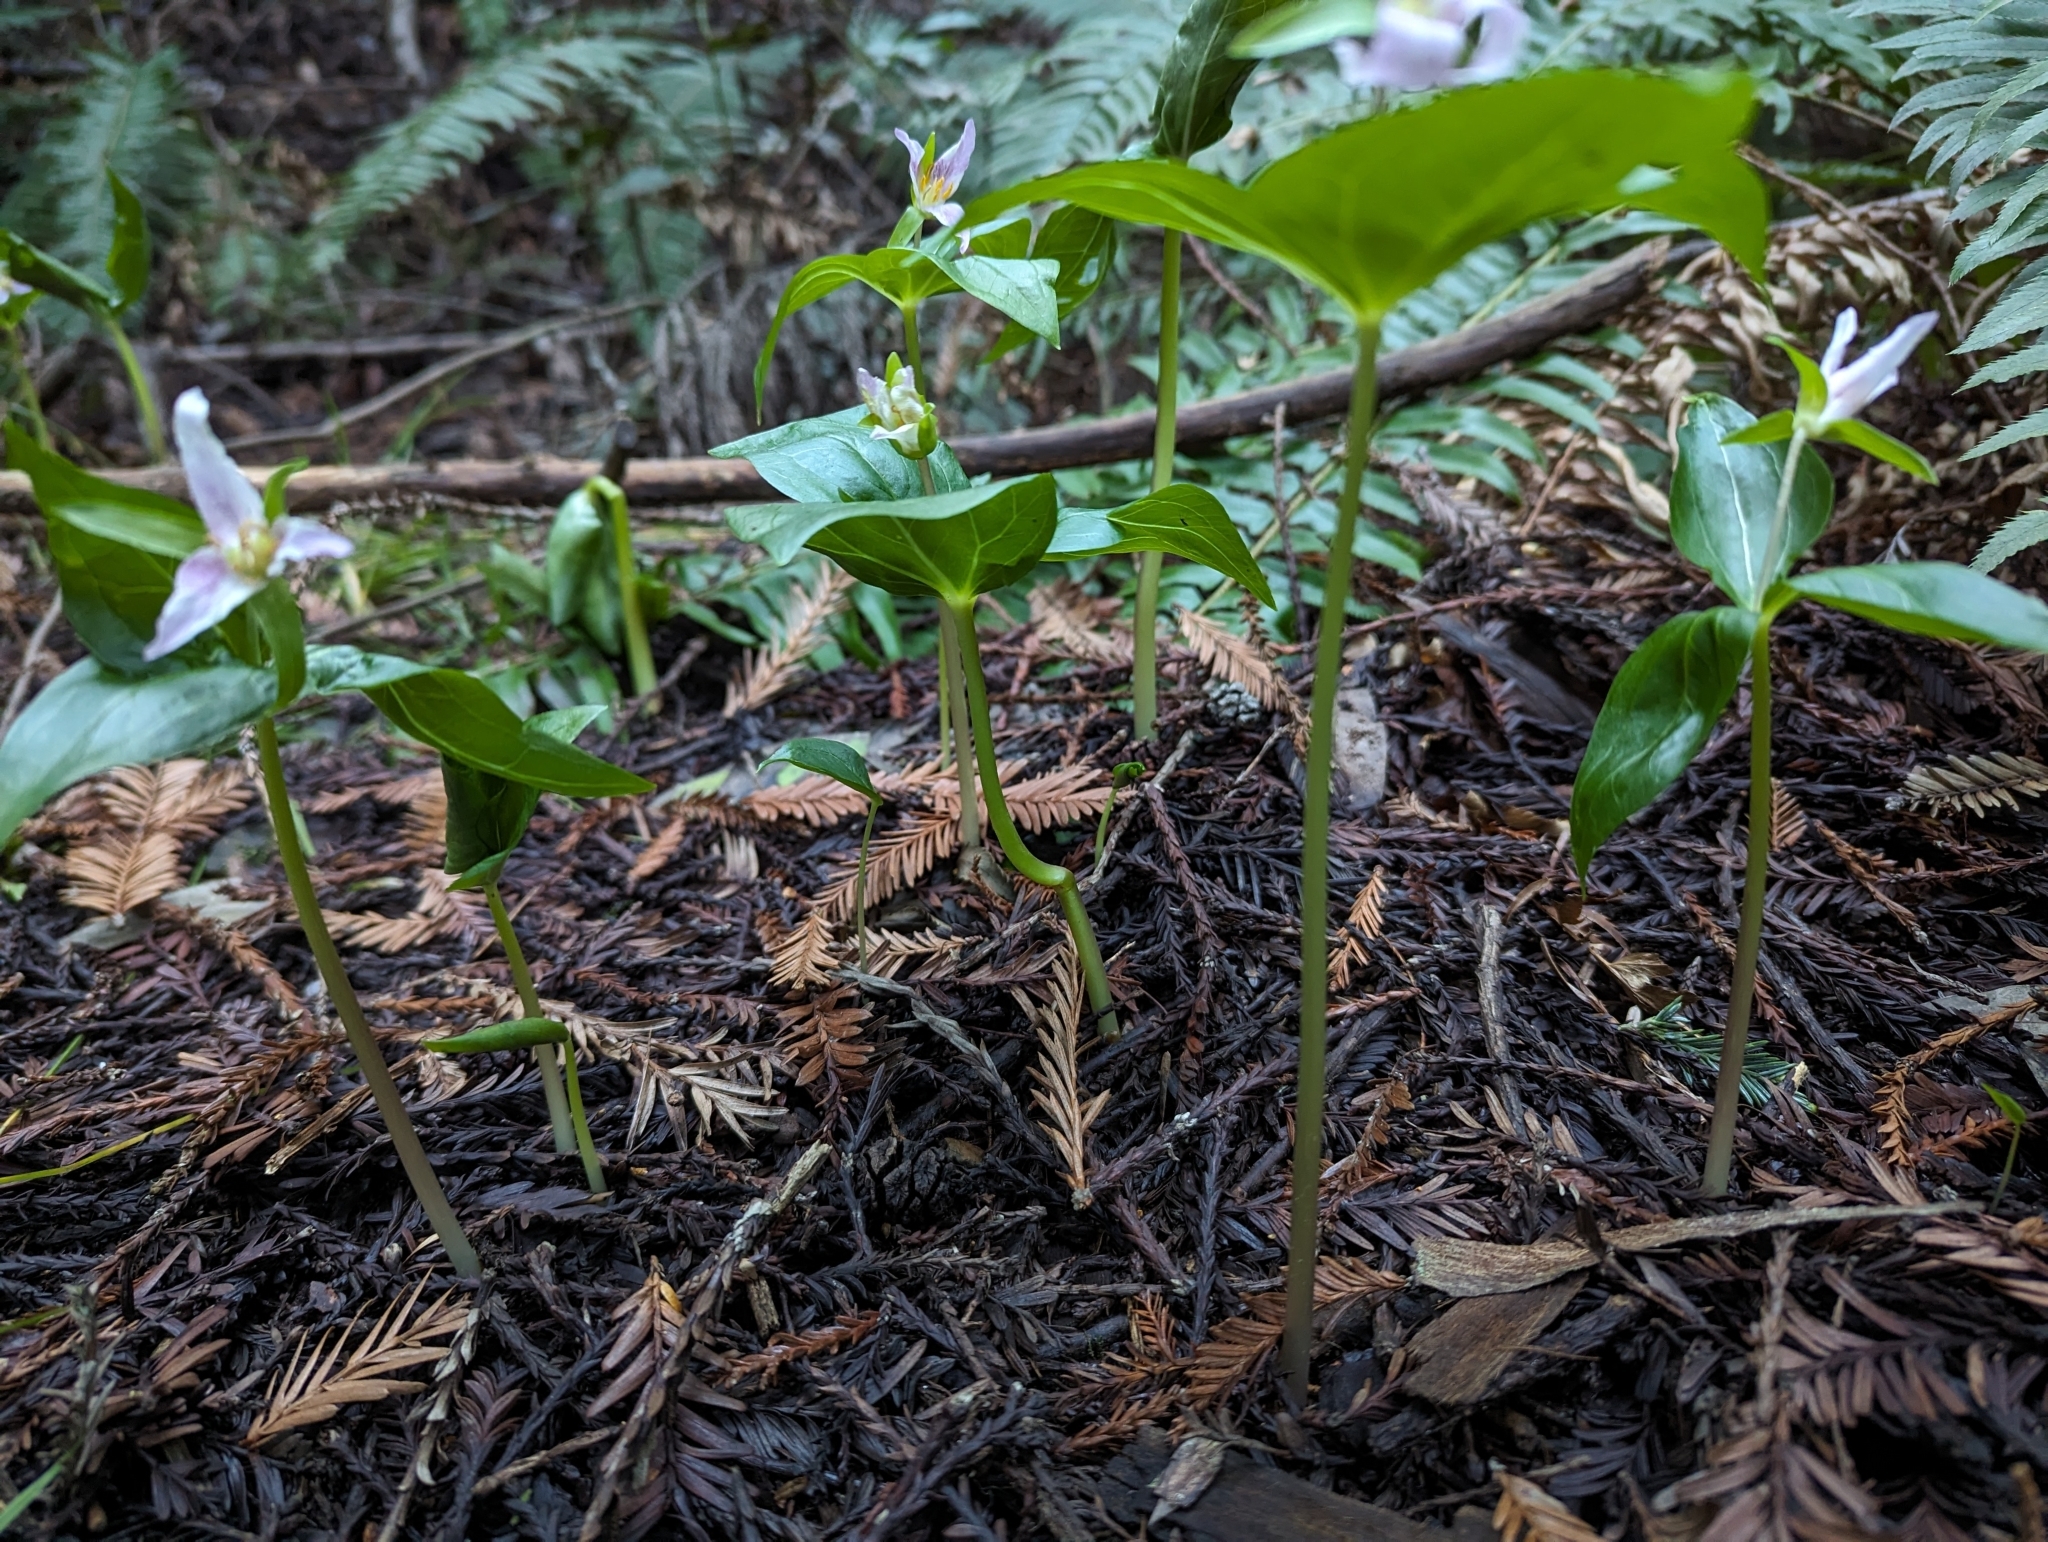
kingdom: Plantae
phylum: Tracheophyta
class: Liliopsida
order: Liliales
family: Melanthiaceae
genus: Trillium
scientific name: Trillium ovatum
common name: Pacific trillium
